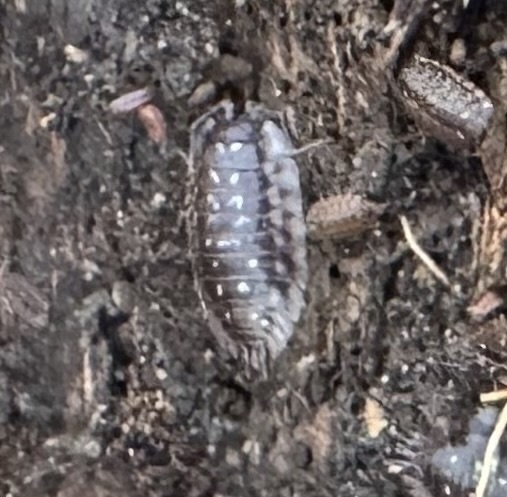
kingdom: Animalia
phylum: Arthropoda
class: Malacostraca
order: Isopoda
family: Oniscidae
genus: Oniscus
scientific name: Oniscus asellus
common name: Common shiny woodlouse
